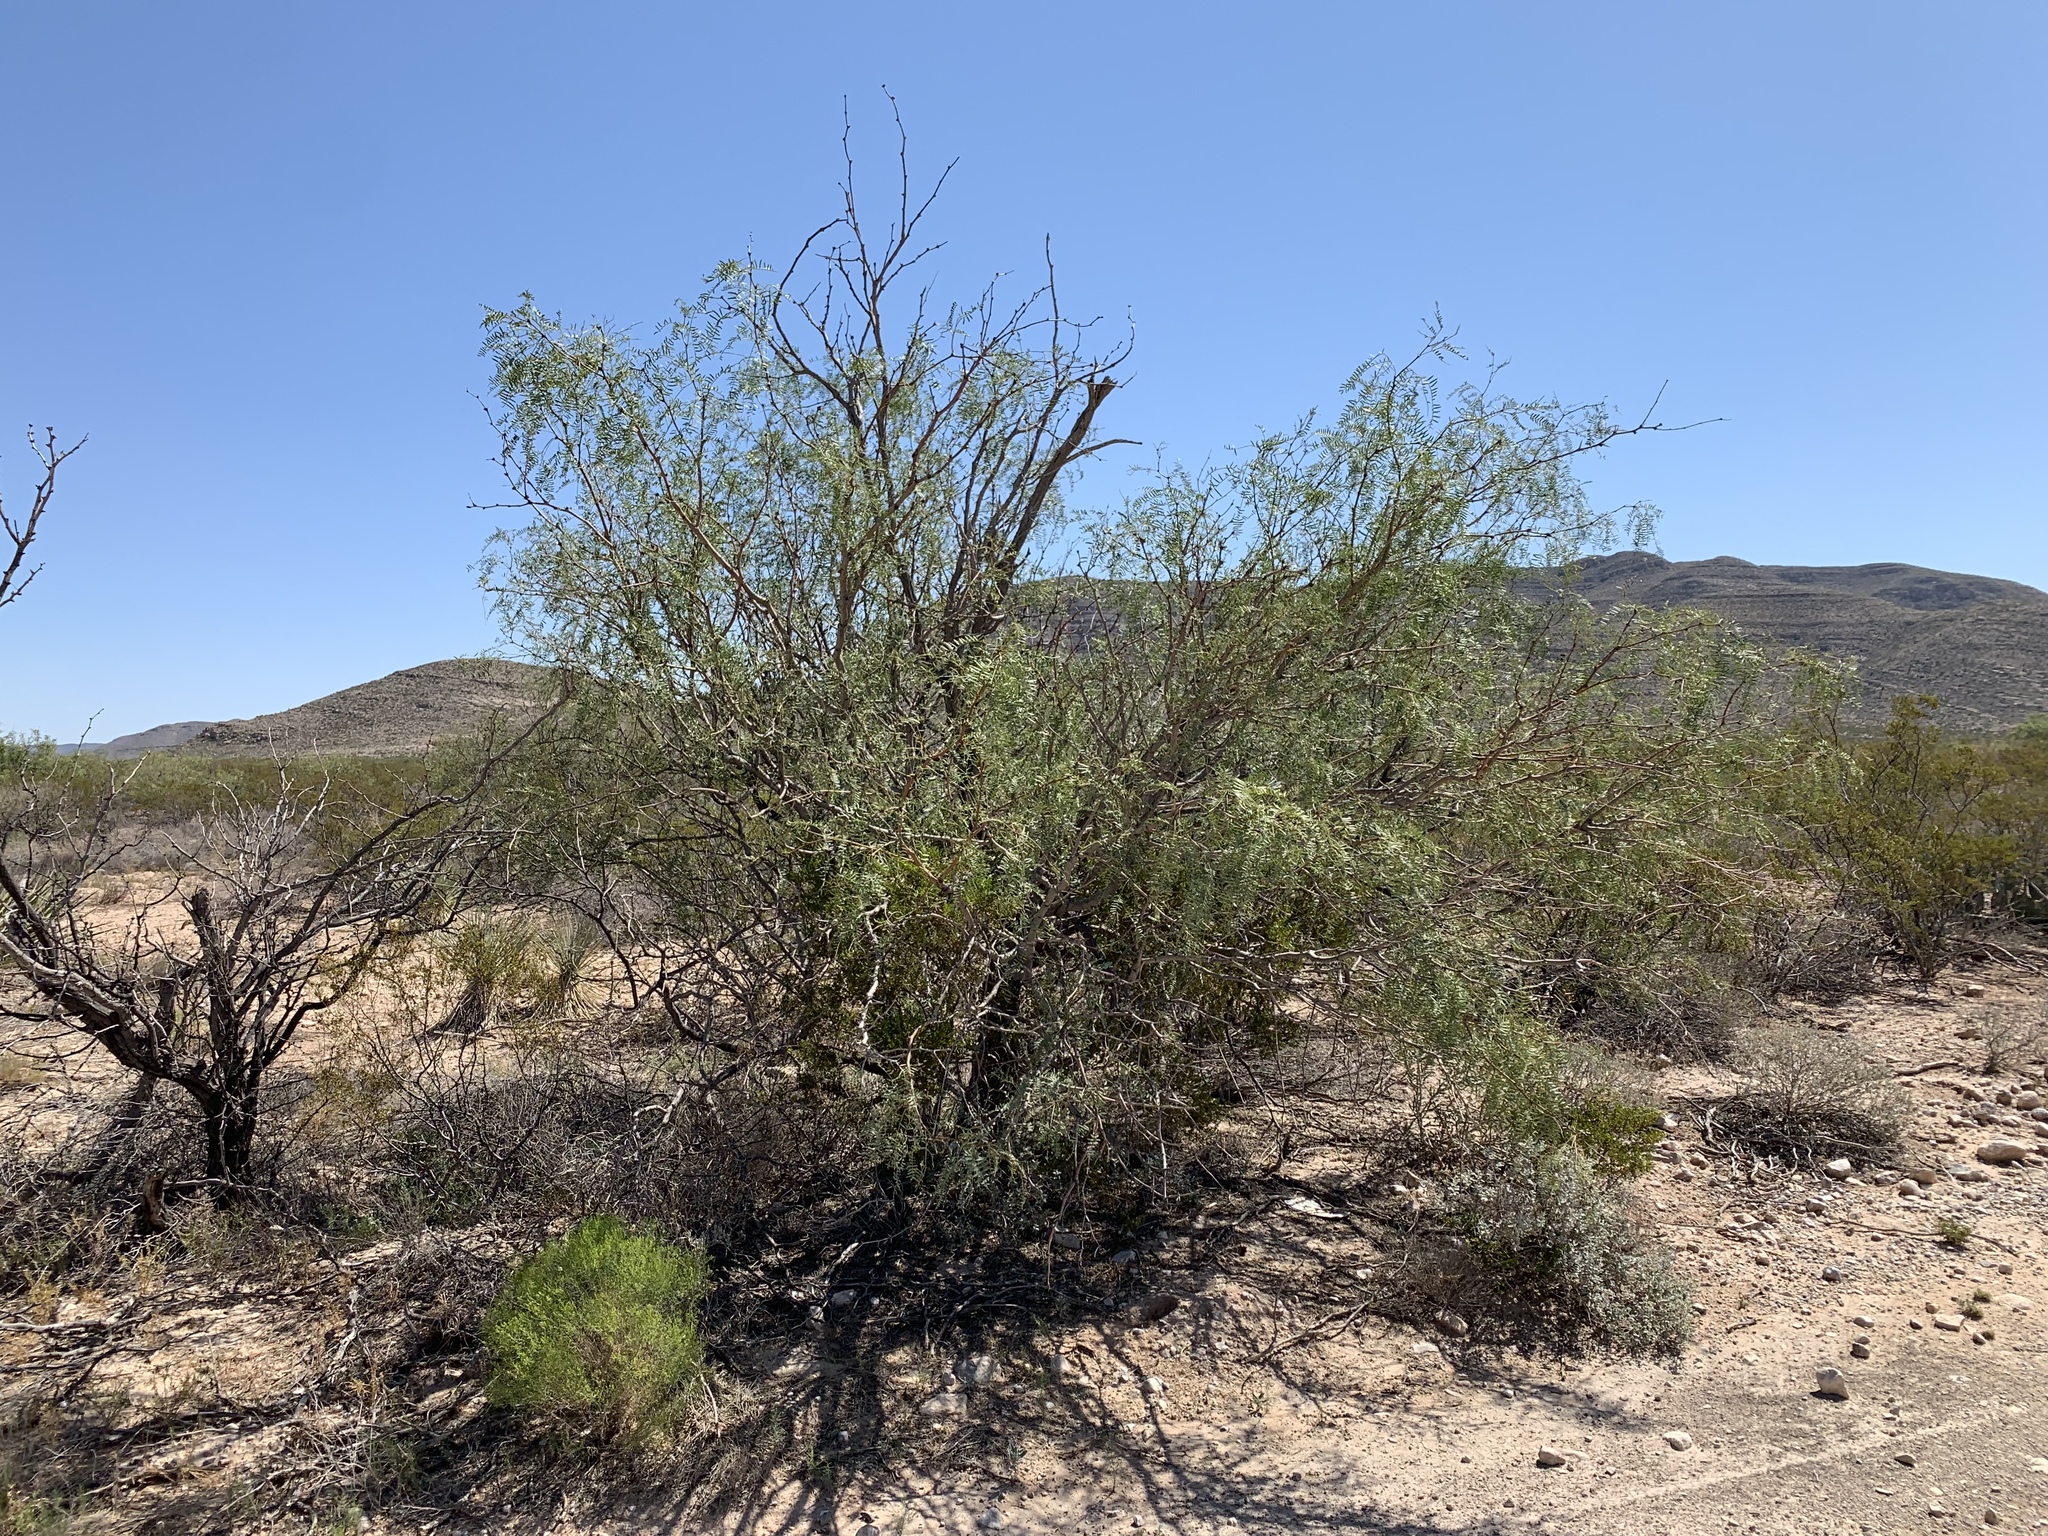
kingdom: Plantae
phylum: Tracheophyta
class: Magnoliopsida
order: Fabales
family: Fabaceae
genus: Prosopis
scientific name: Prosopis glandulosa
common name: Honey mesquite
